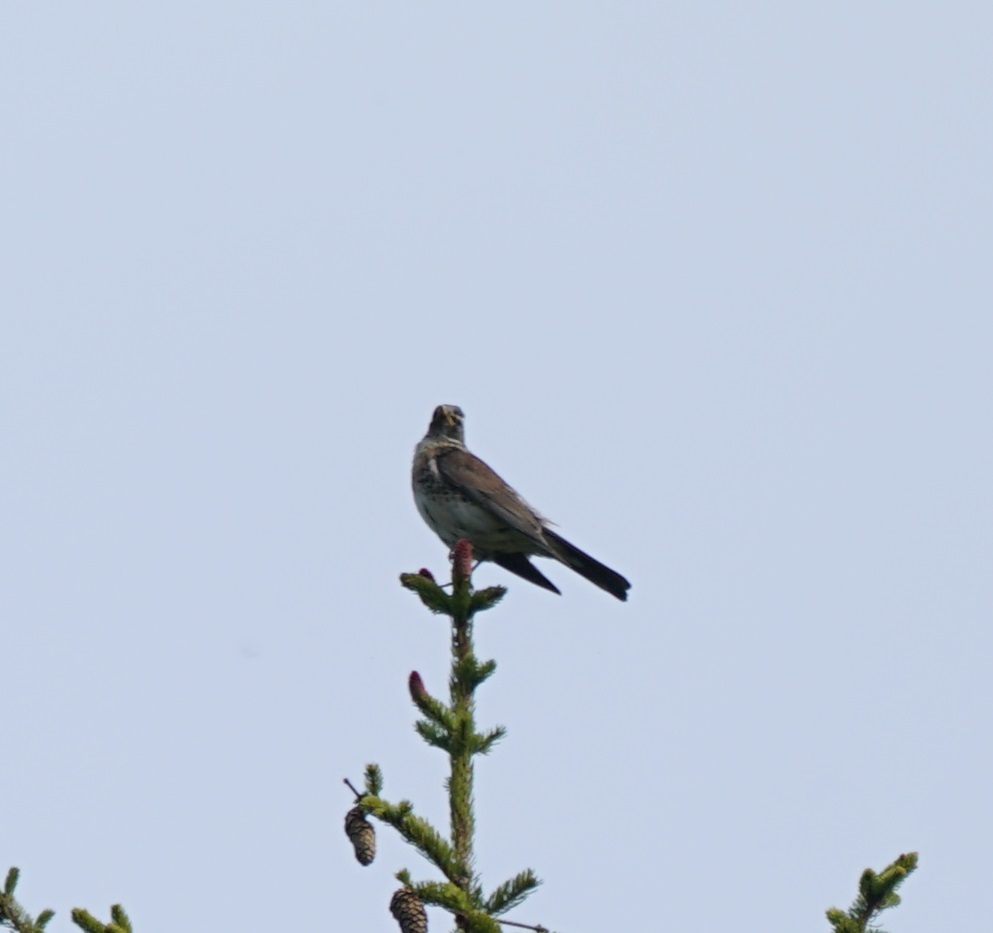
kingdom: Animalia
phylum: Chordata
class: Aves
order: Passeriformes
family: Turdidae
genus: Turdus
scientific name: Turdus pilaris
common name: Fieldfare
